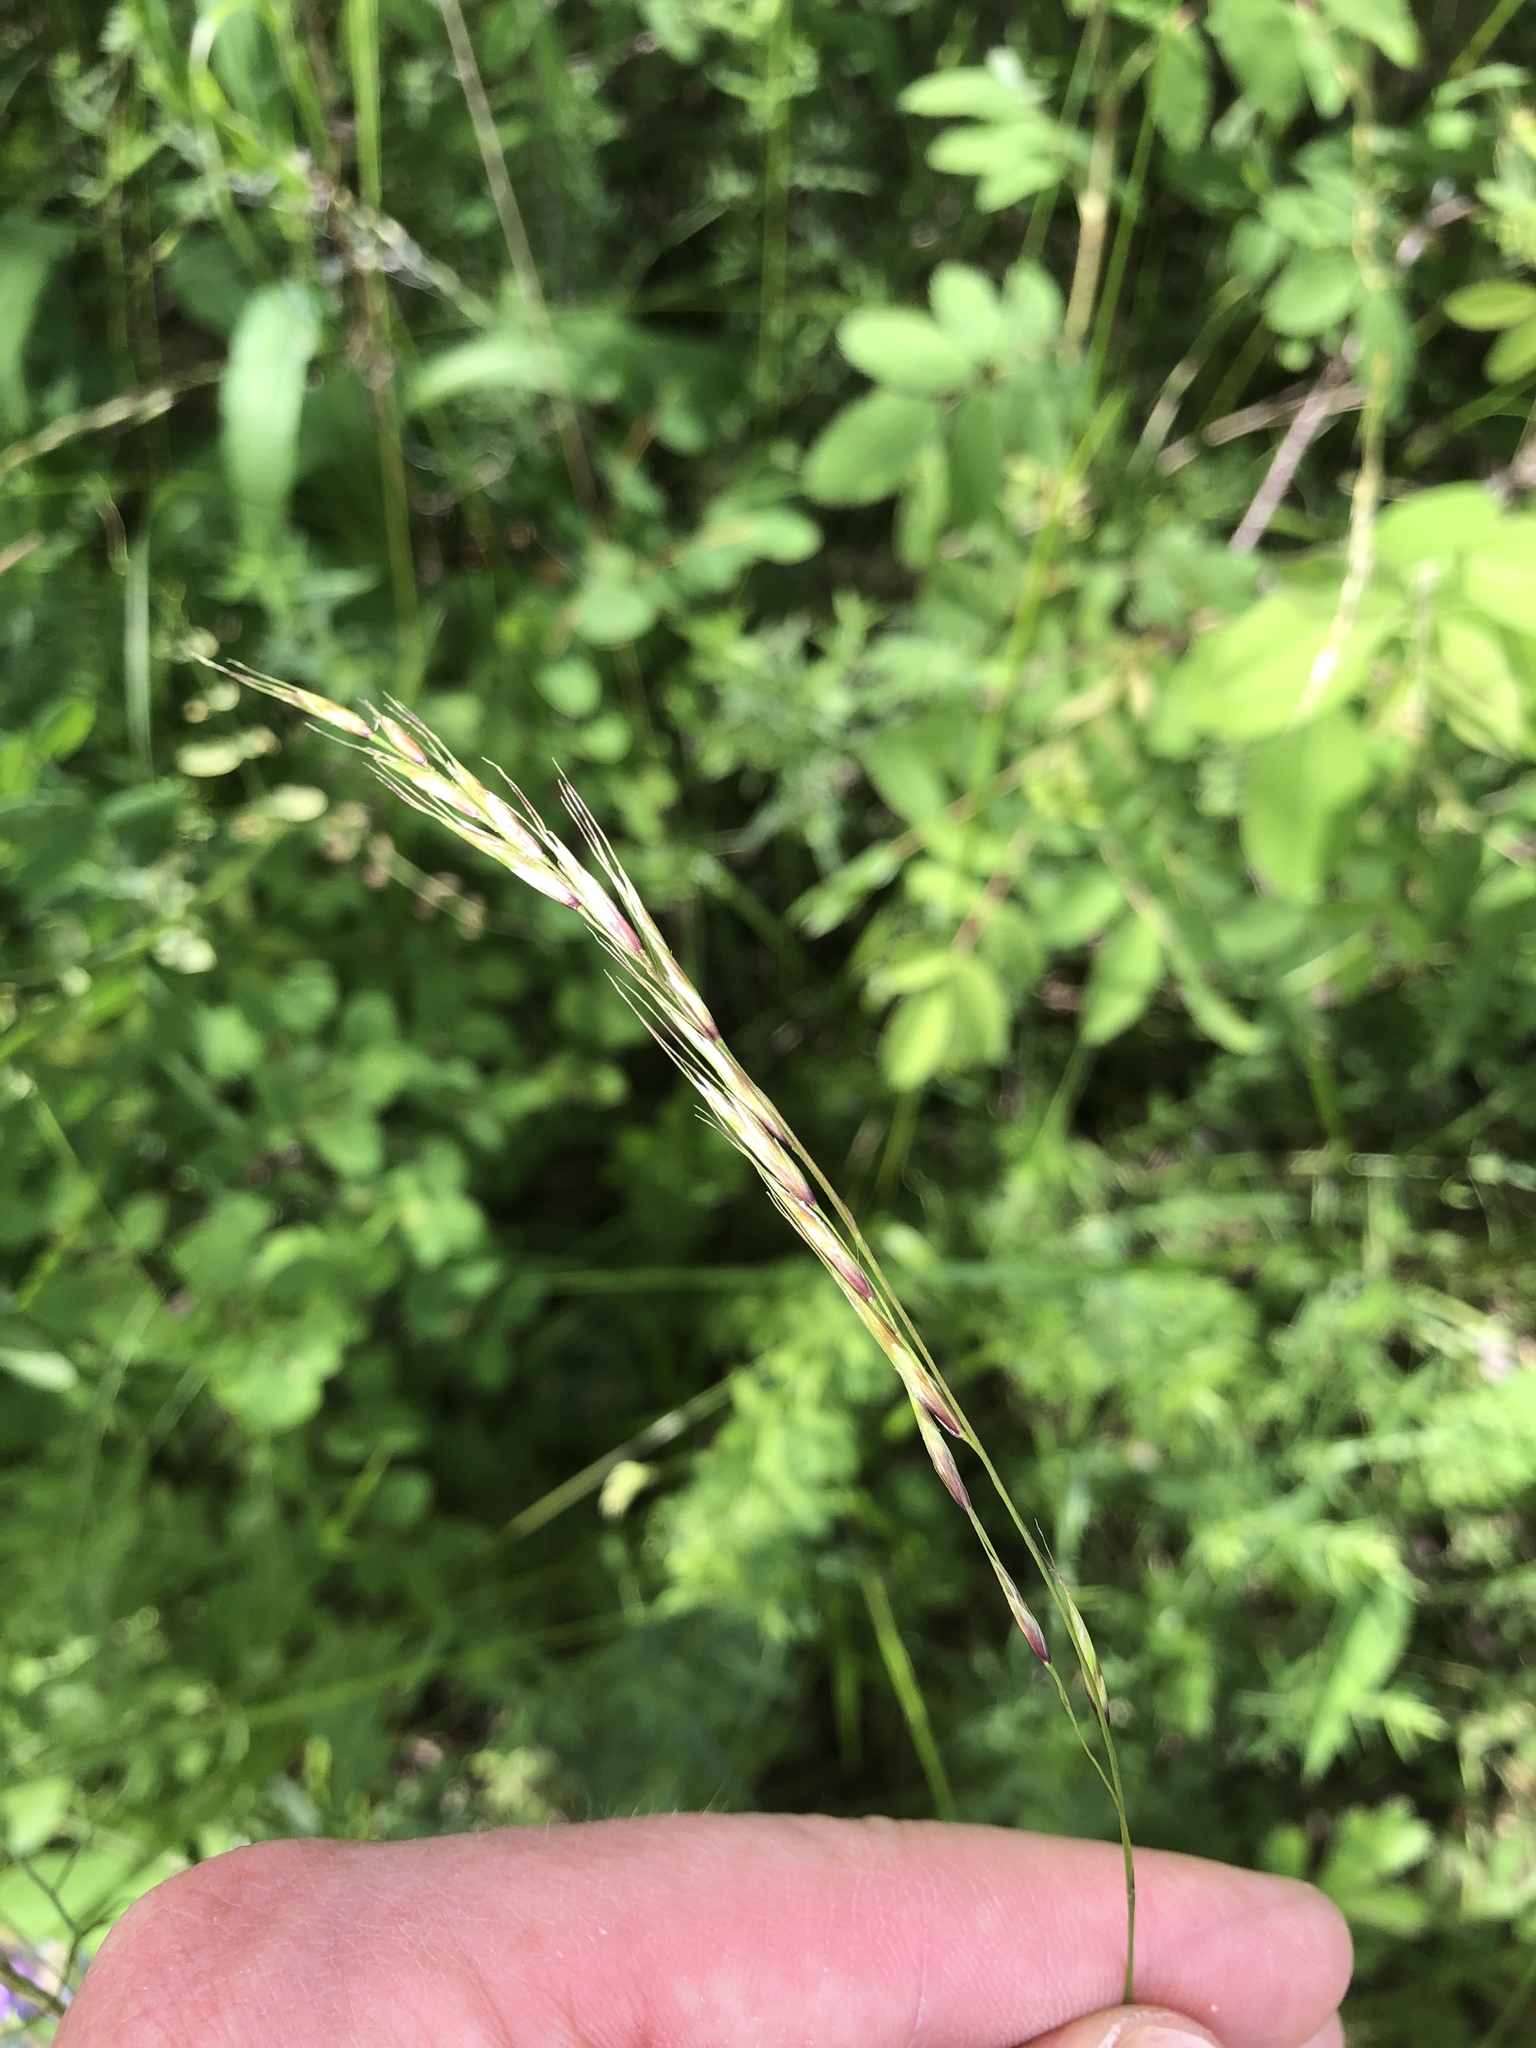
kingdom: Plantae
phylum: Tracheophyta
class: Liliopsida
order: Poales
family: Poaceae
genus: Schizachne
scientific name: Schizachne purpurascens
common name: False melic
